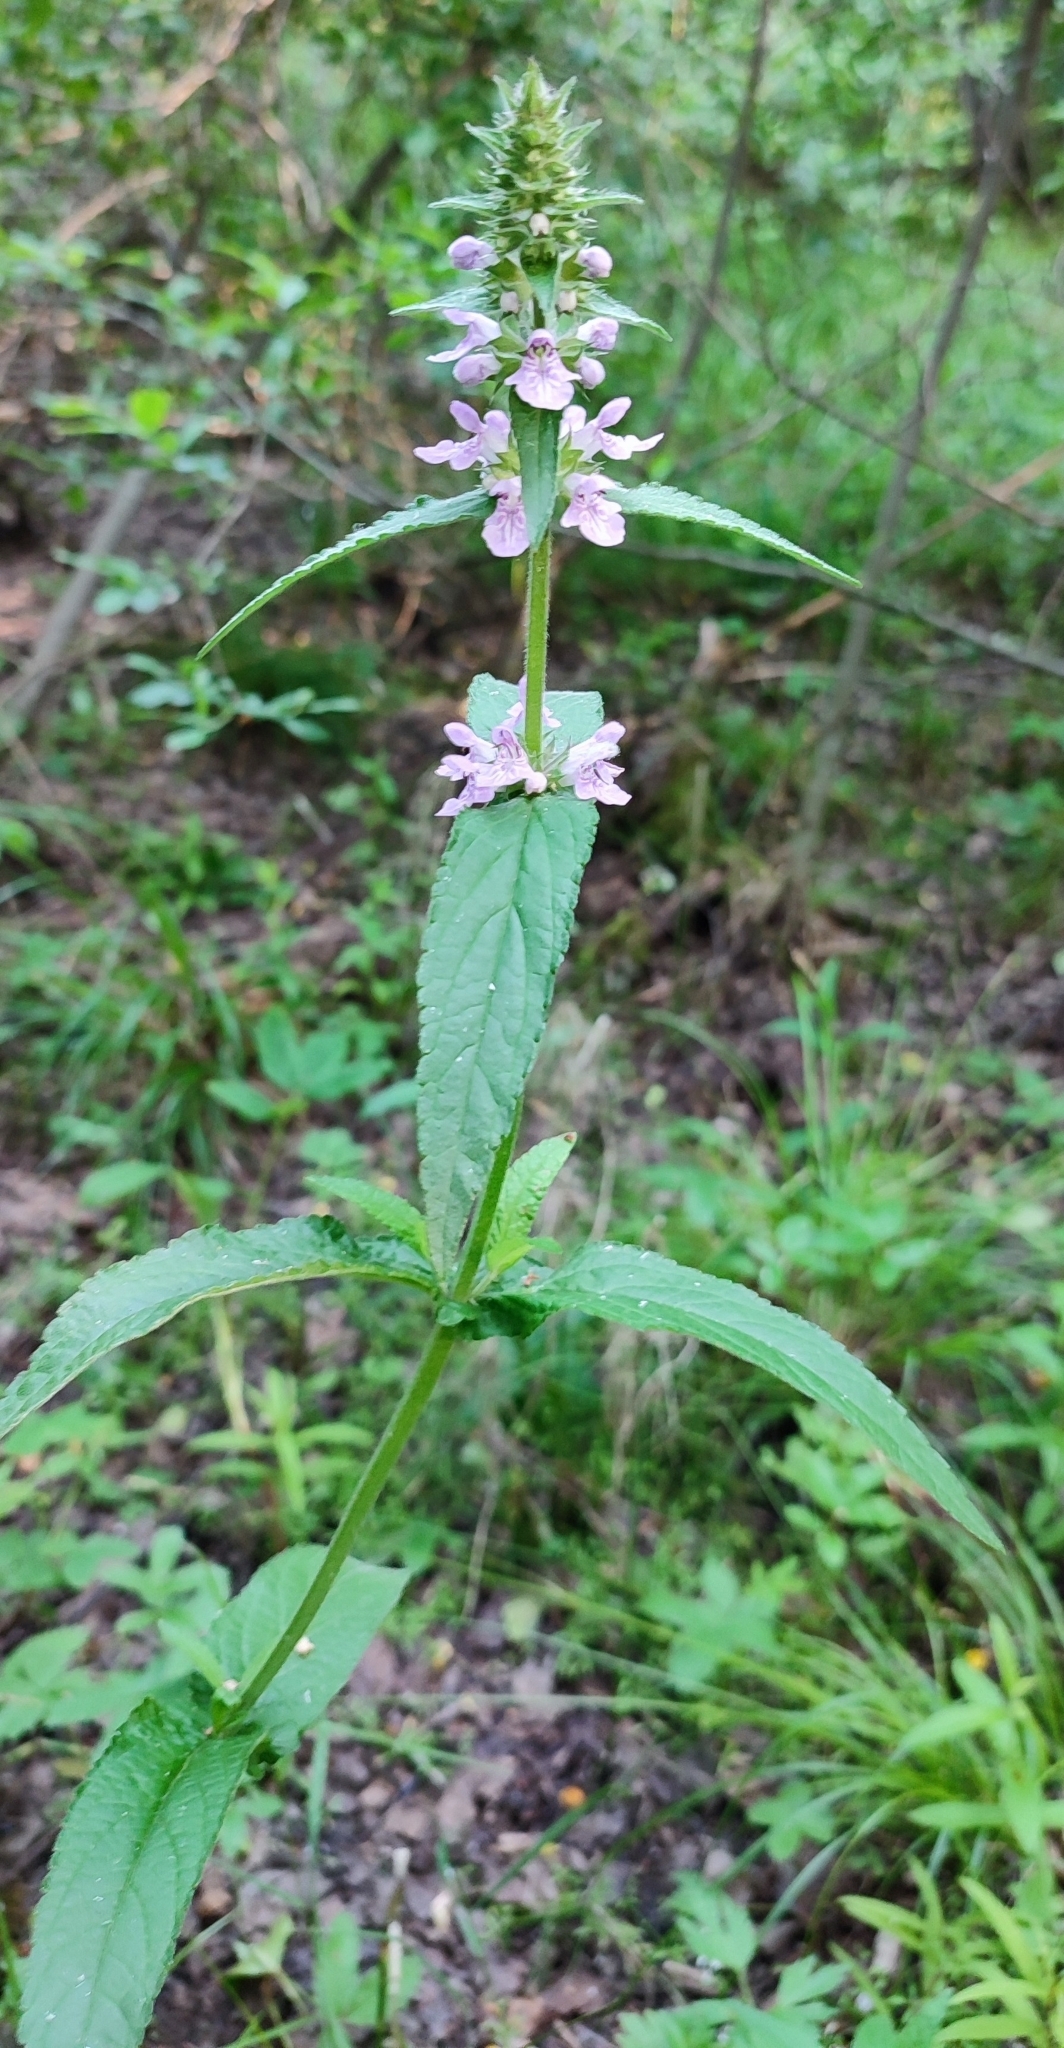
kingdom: Plantae
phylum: Tracheophyta
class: Magnoliopsida
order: Lamiales
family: Lamiaceae
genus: Stachys
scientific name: Stachys palustris
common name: Marsh woundwort
